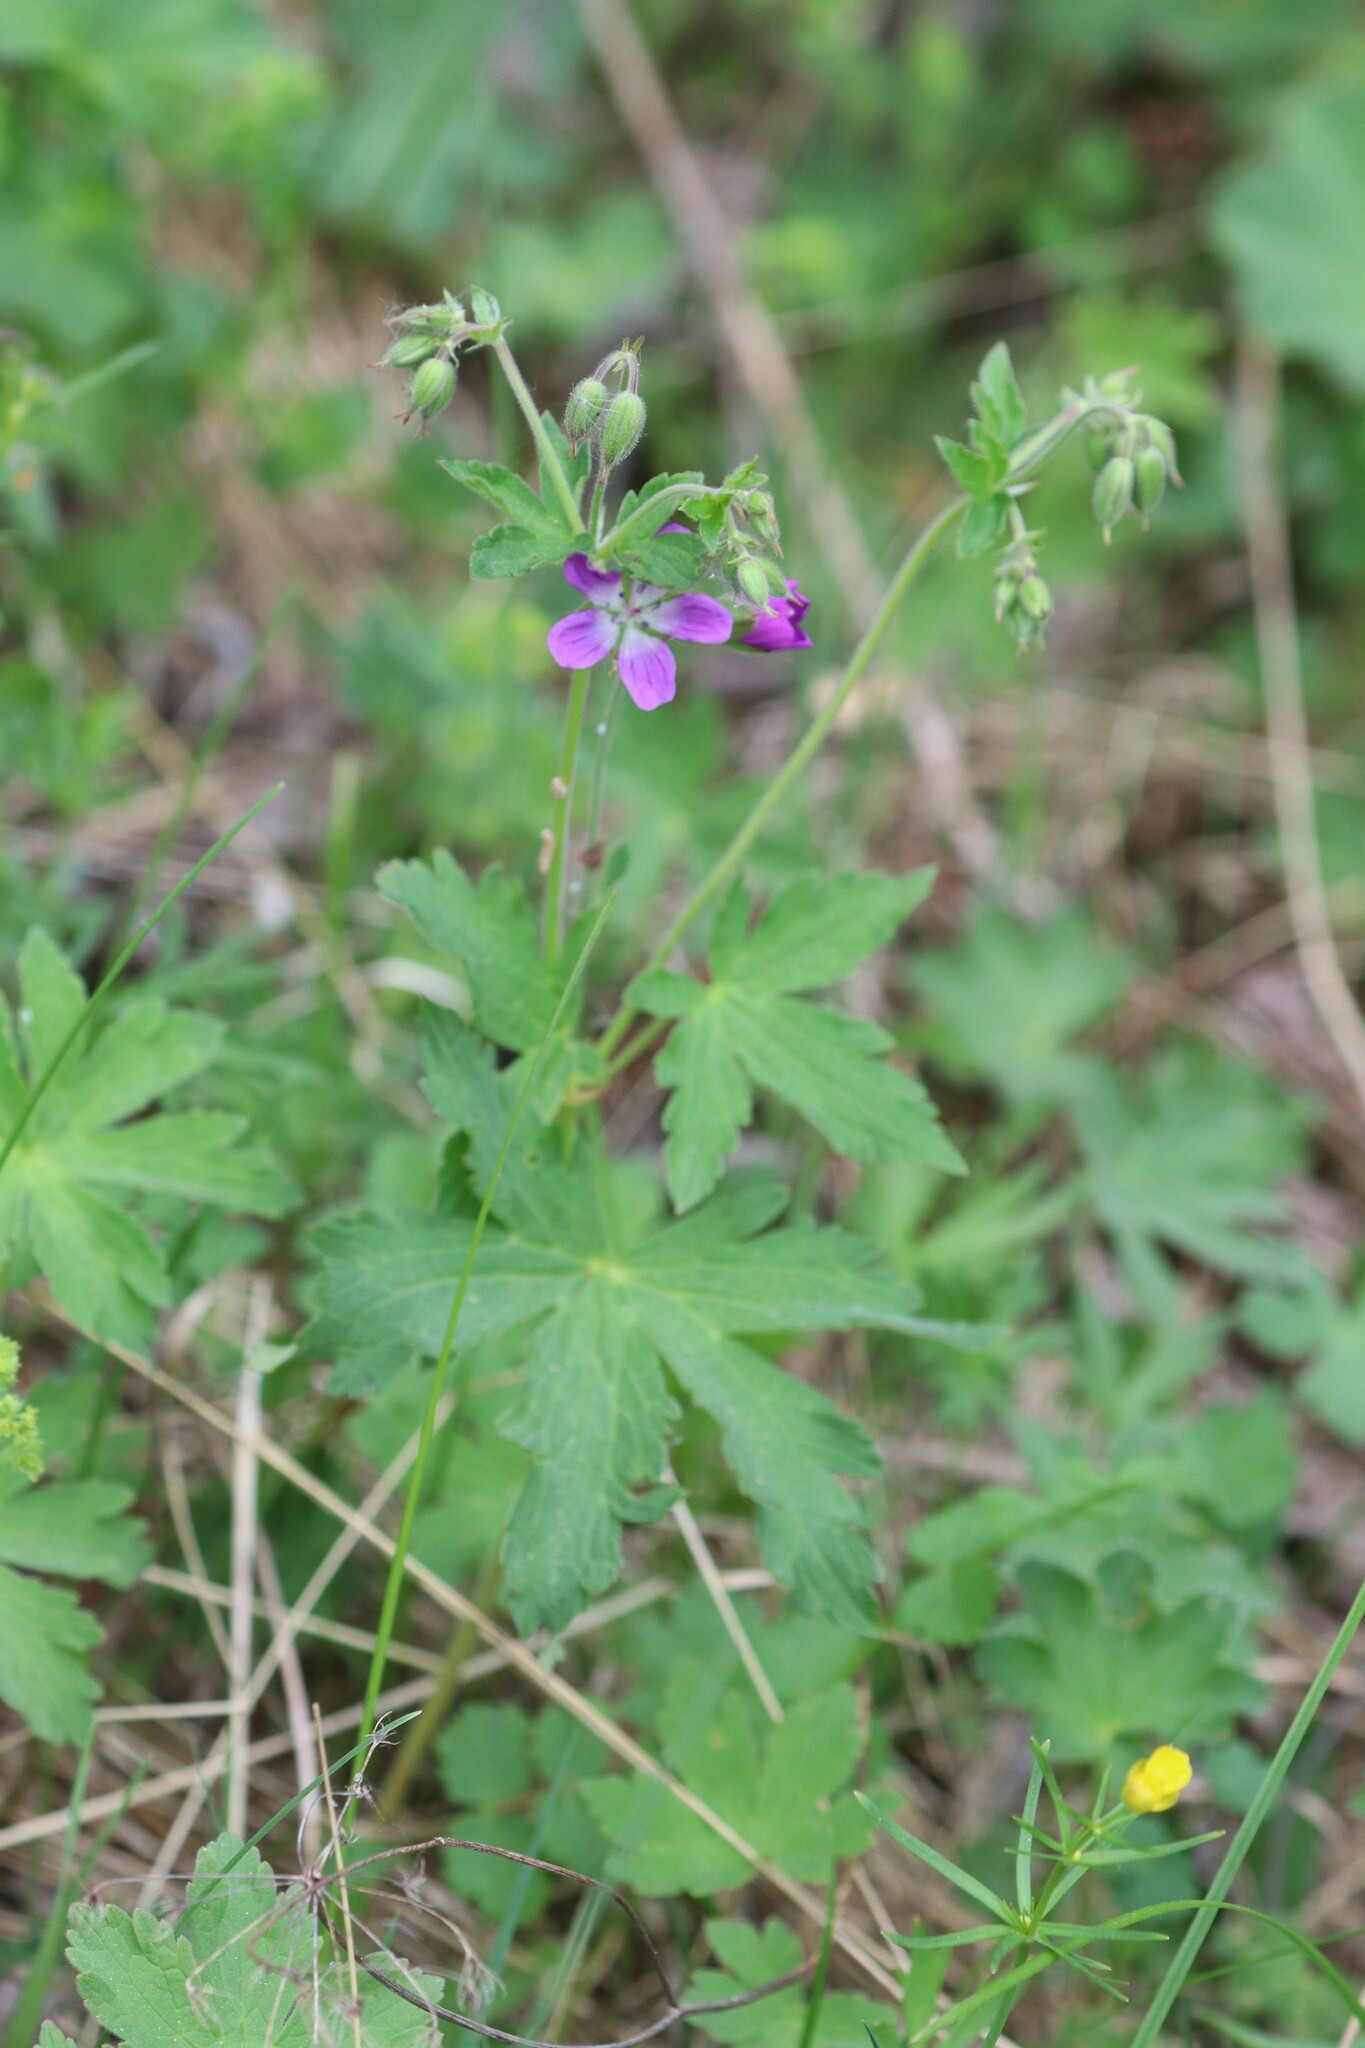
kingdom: Plantae
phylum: Tracheophyta
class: Magnoliopsida
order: Geraniales
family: Geraniaceae
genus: Geranium
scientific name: Geranium sylvaticum
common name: Wood crane's-bill
